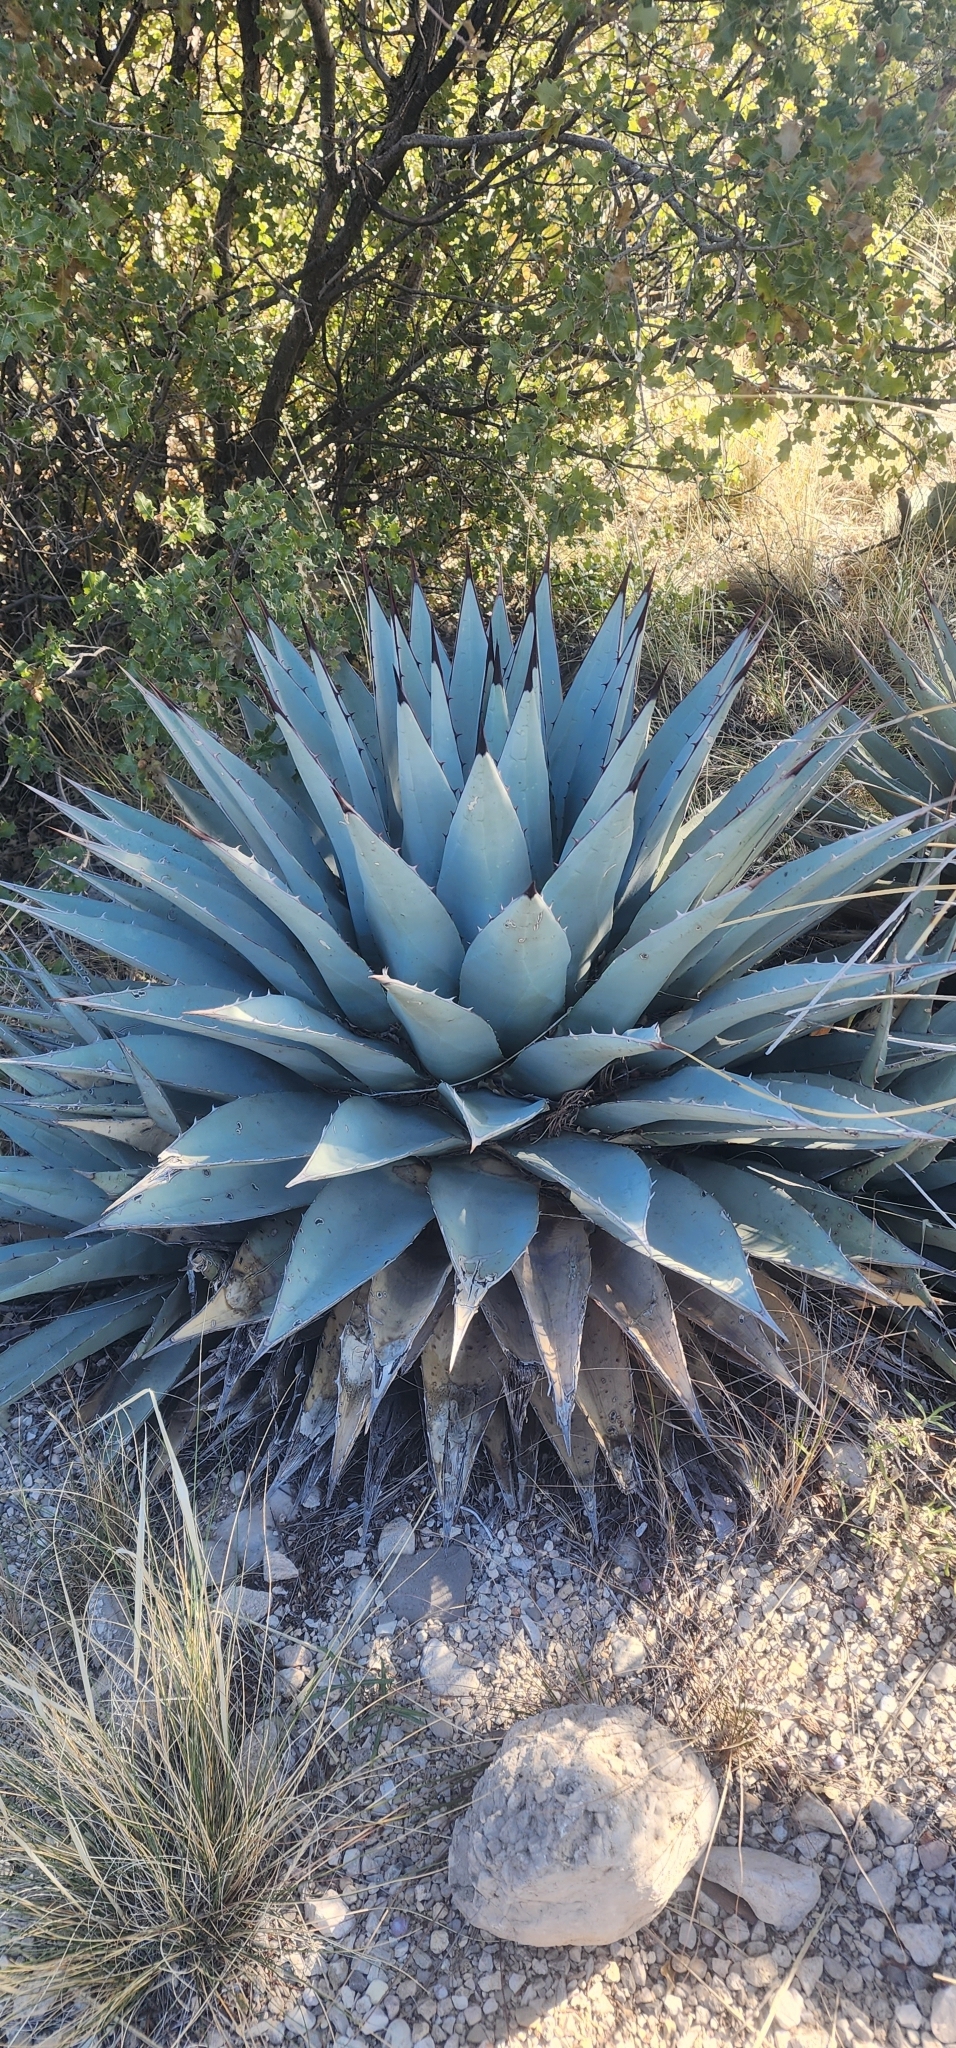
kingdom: Plantae
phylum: Tracheophyta
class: Liliopsida
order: Asparagales
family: Asparagaceae
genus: Agave
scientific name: Agave parryi
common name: Parry's agave
